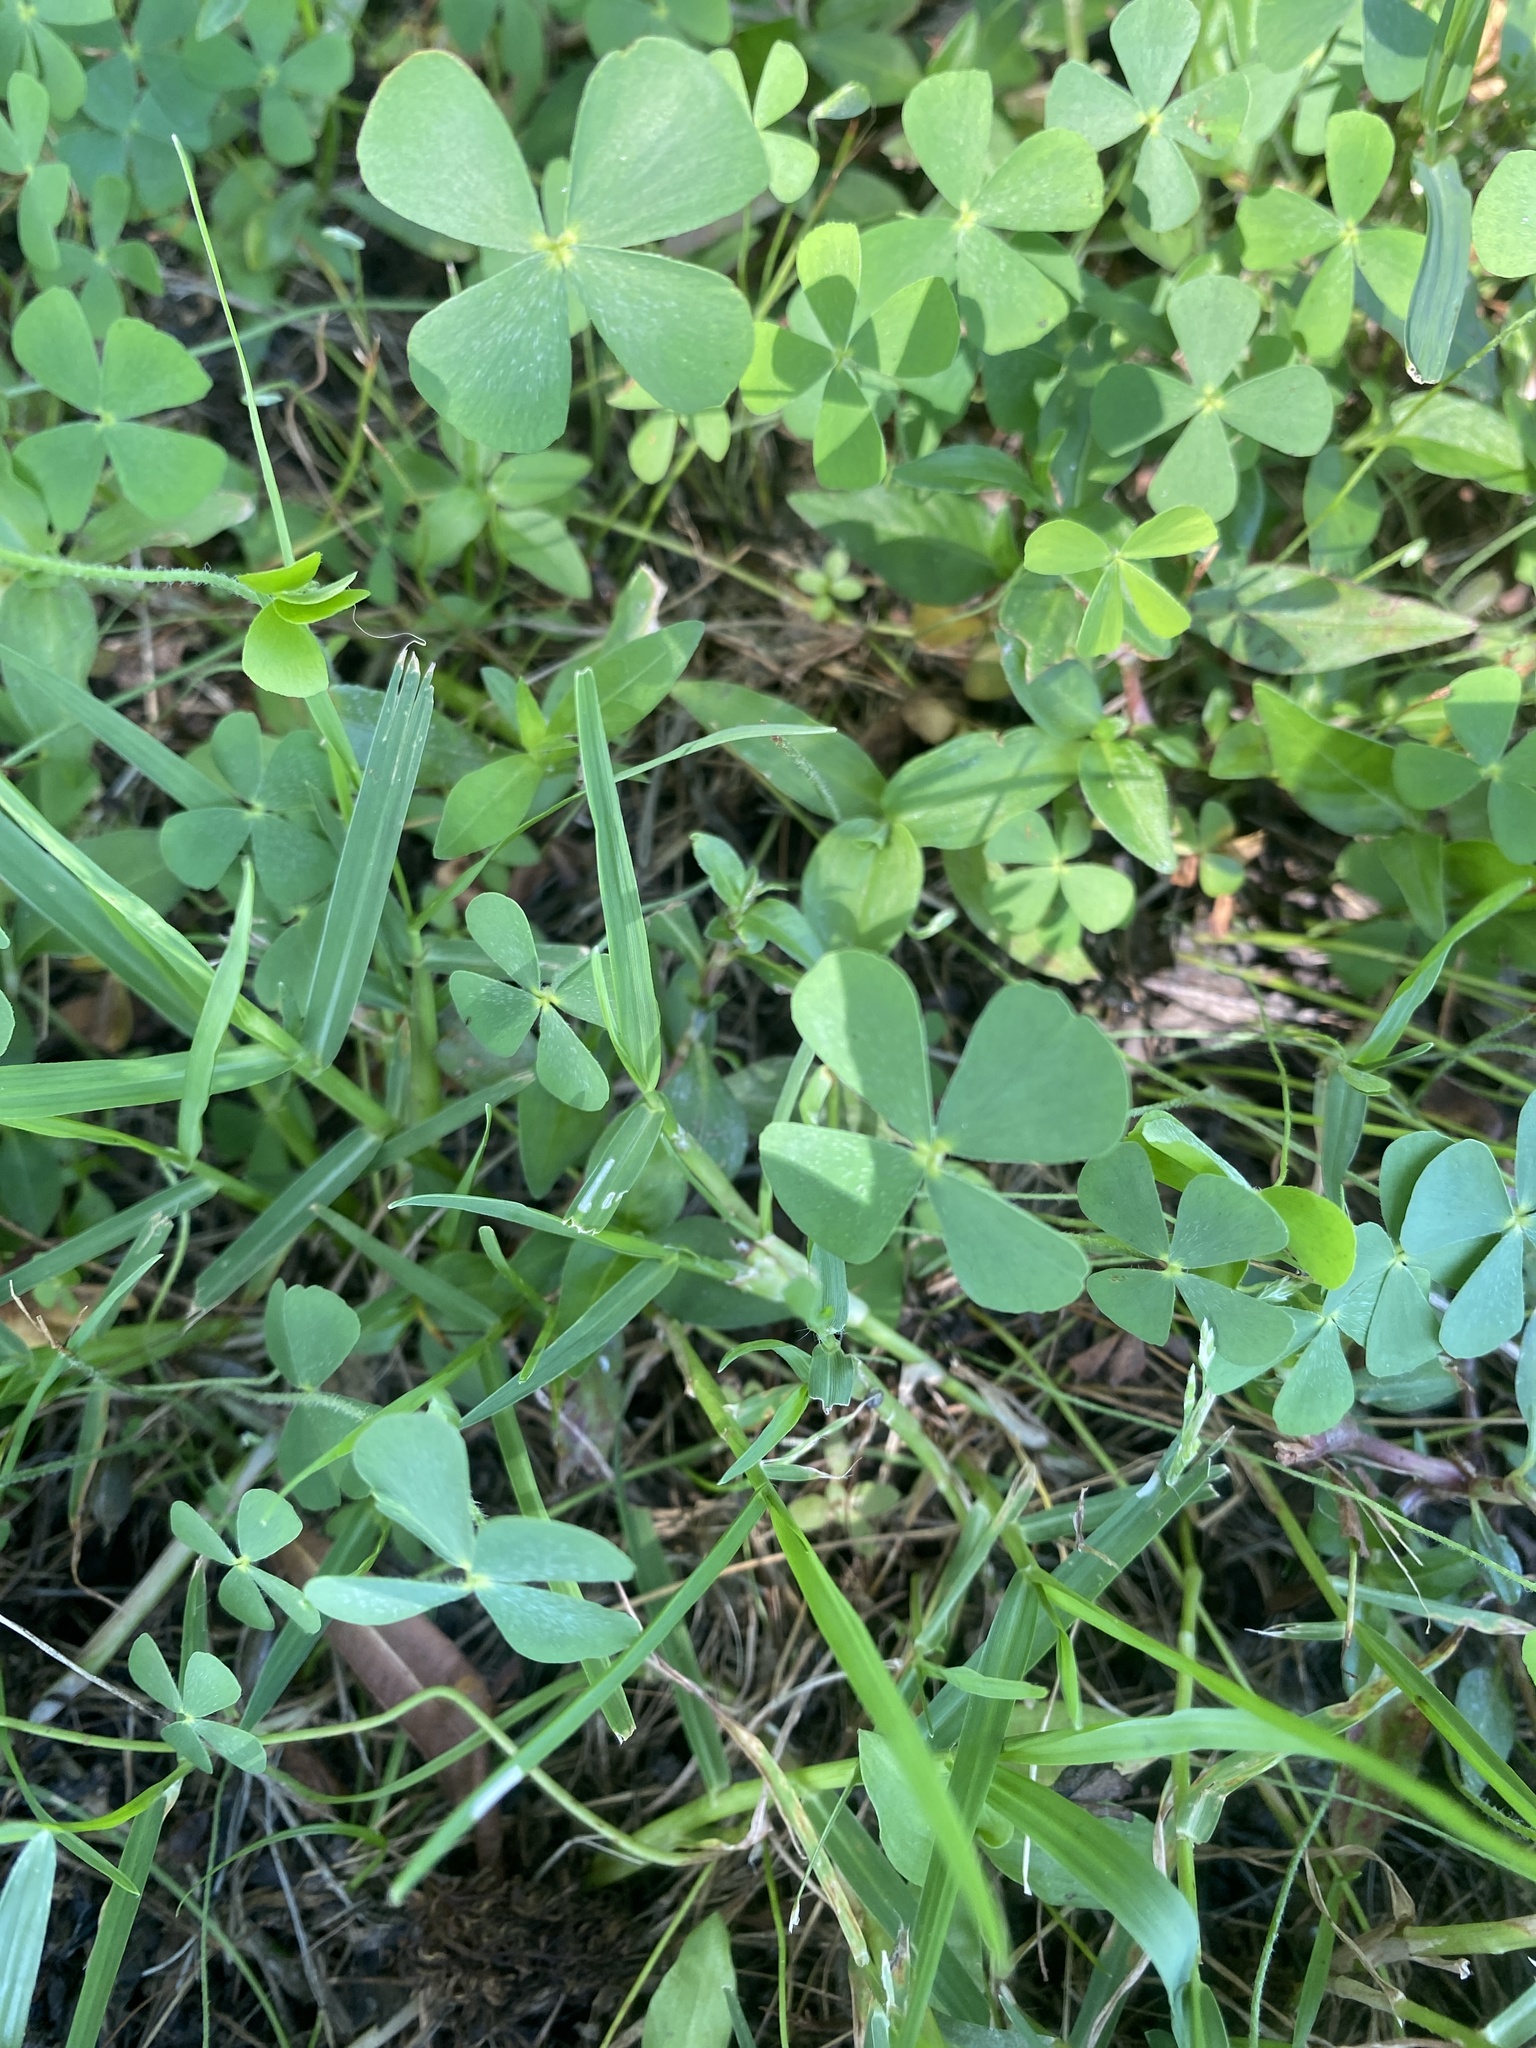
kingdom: Plantae
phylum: Tracheophyta
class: Polypodiopsida
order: Salviniales
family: Marsileaceae
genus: Marsilea
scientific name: Marsilea vestita
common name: Hooked-pepperwort
